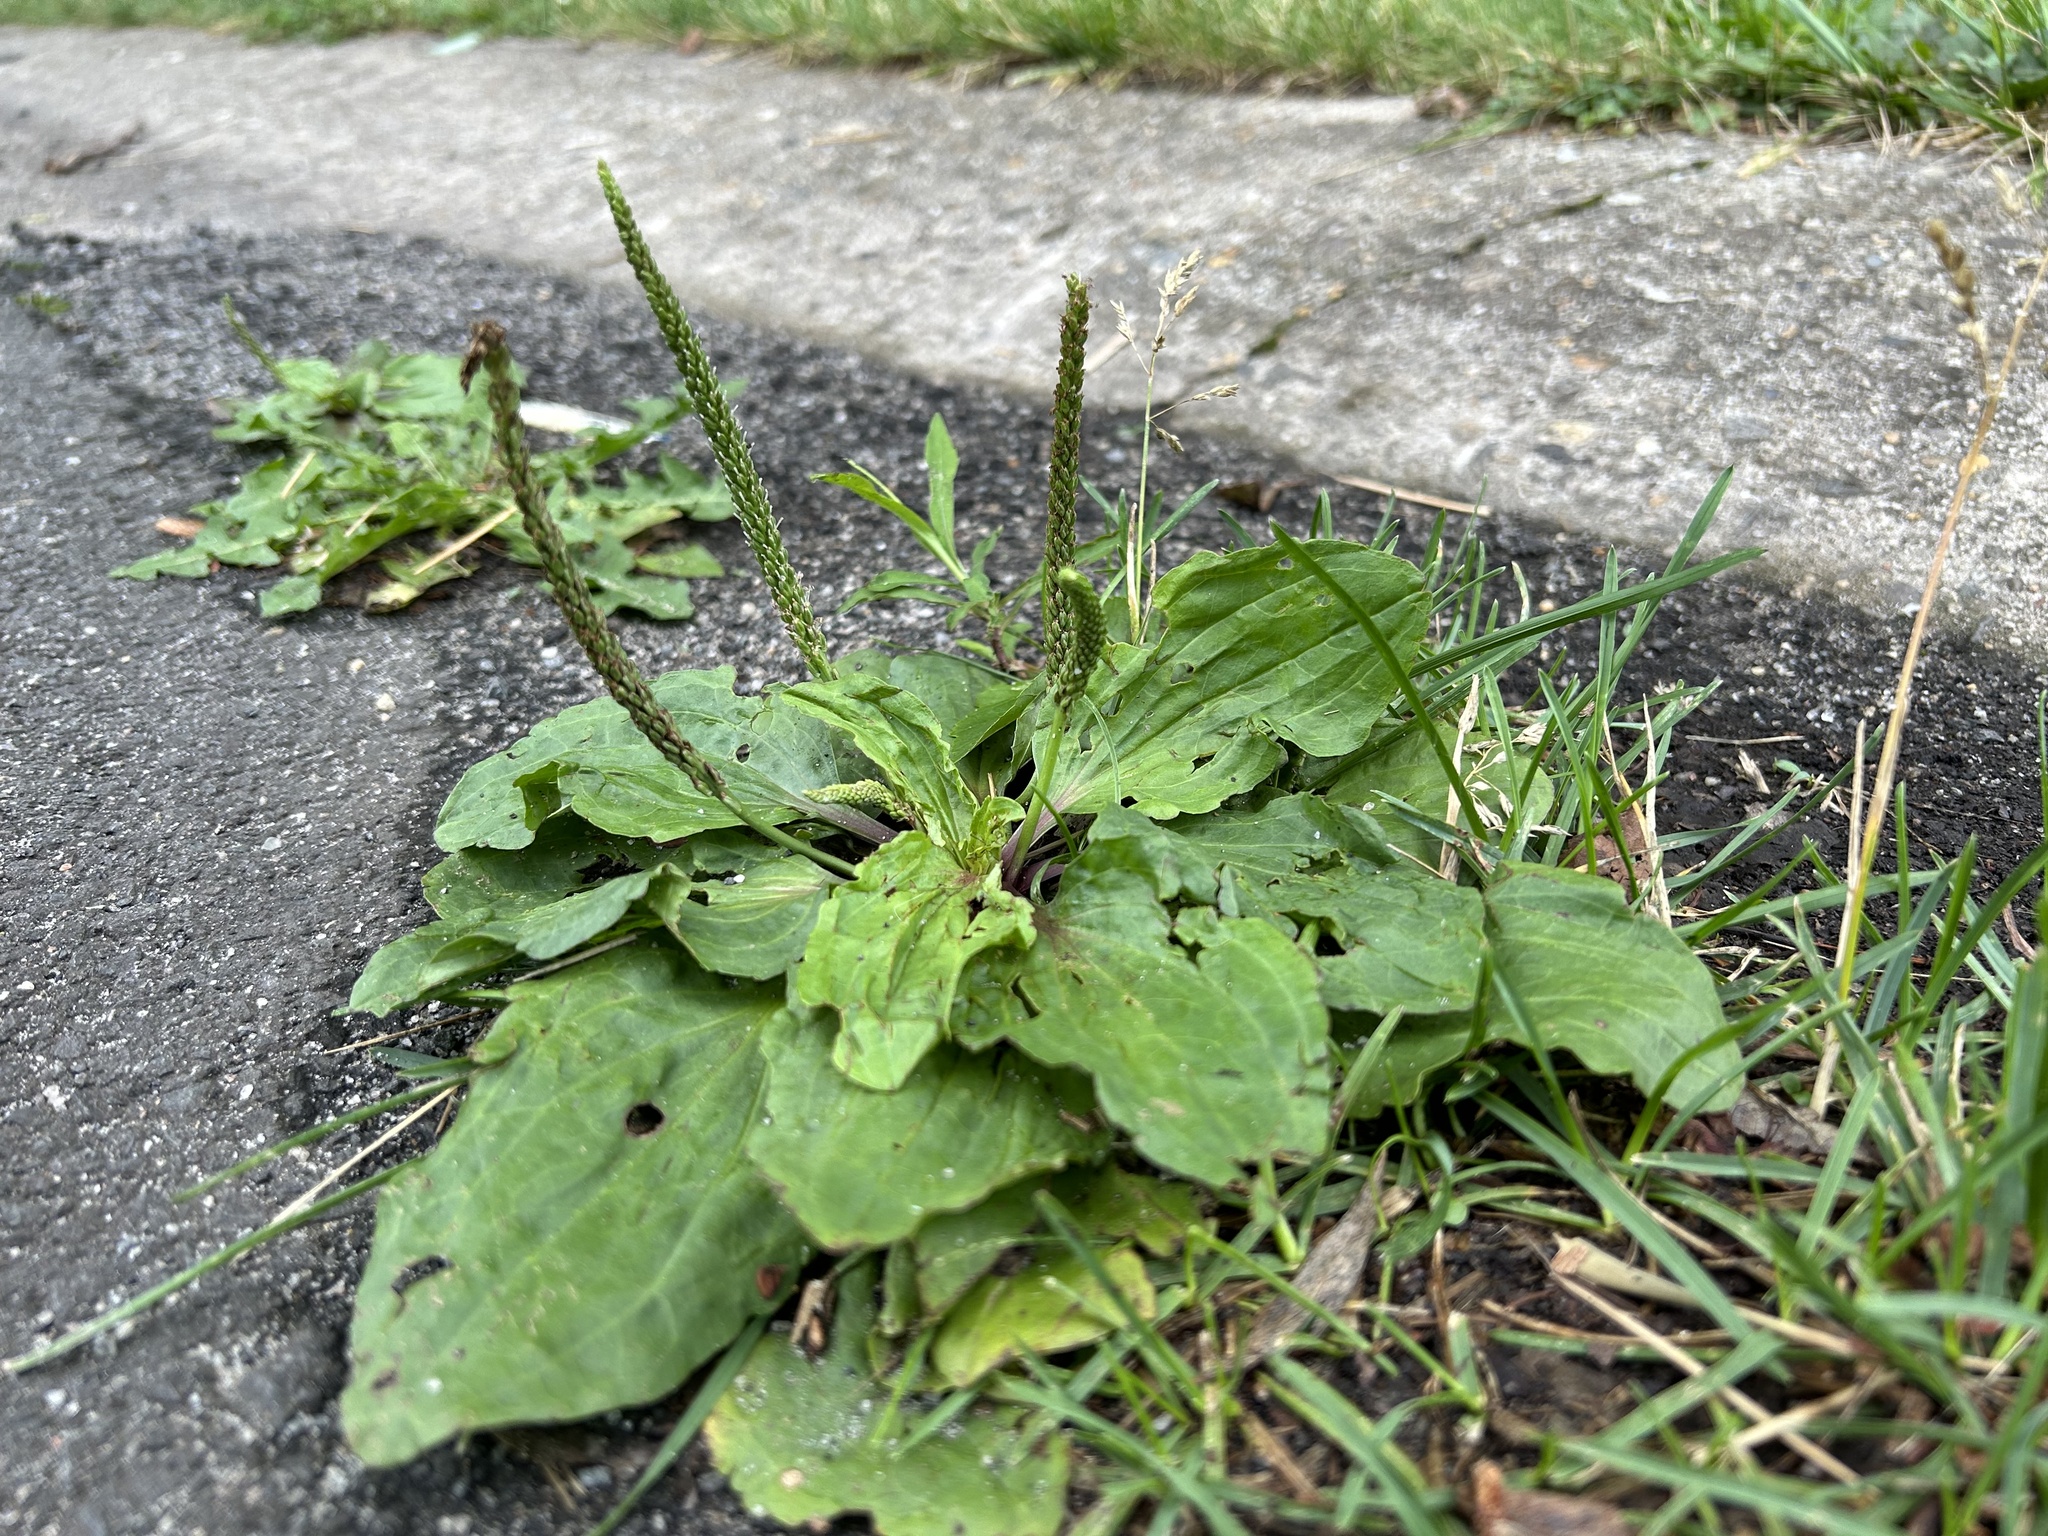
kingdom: Plantae
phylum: Tracheophyta
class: Magnoliopsida
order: Lamiales
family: Plantaginaceae
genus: Plantago
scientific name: Plantago major
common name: Common plantain
